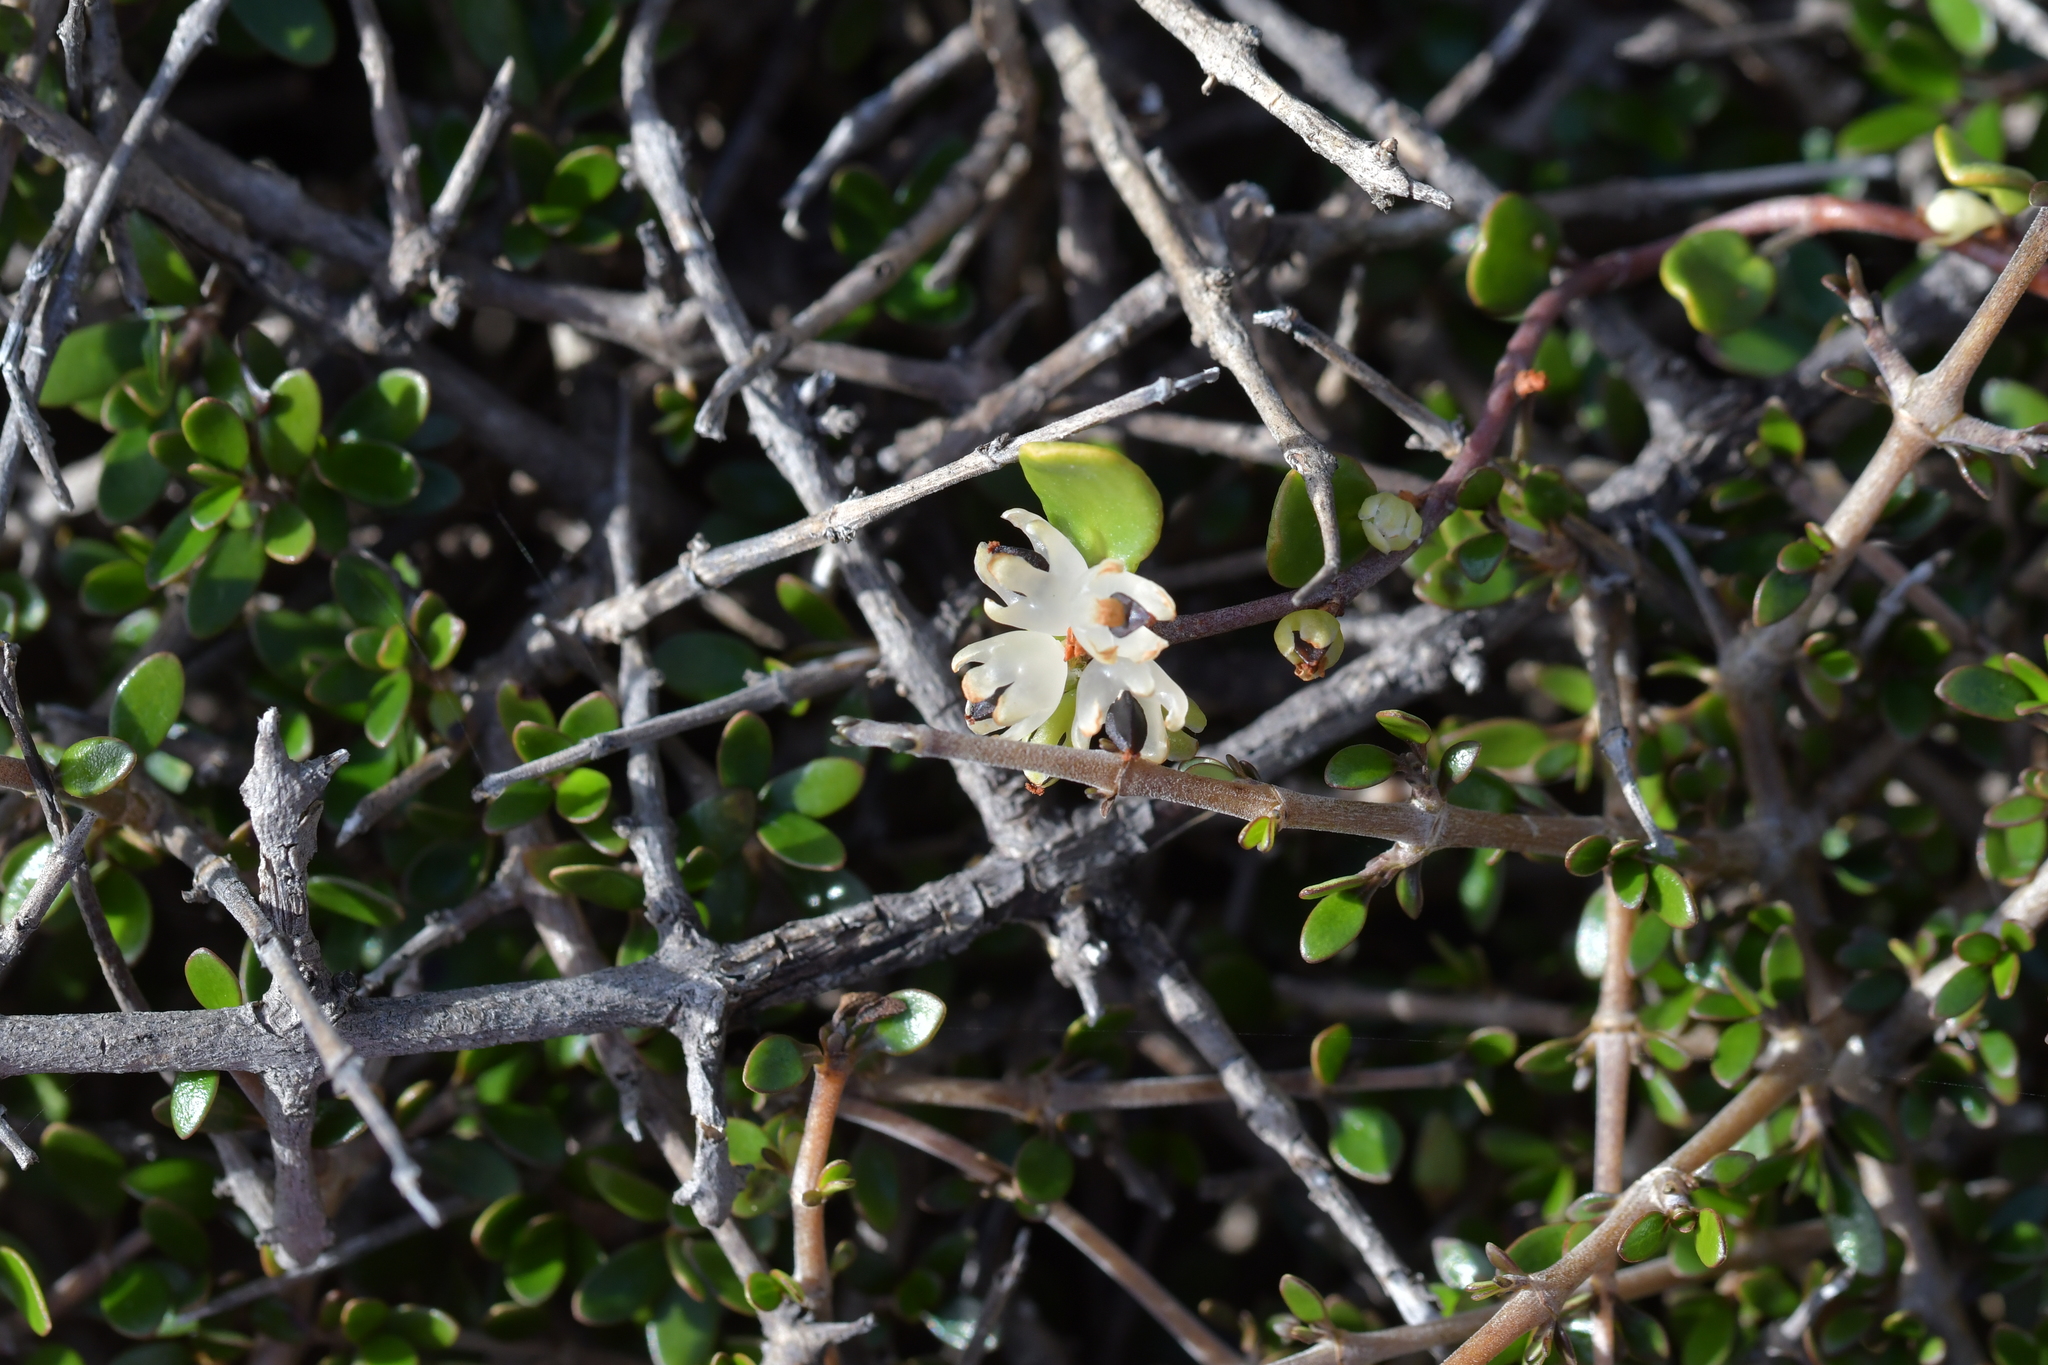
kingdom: Plantae
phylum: Tracheophyta
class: Magnoliopsida
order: Caryophyllales
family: Polygonaceae
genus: Muehlenbeckia
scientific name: Muehlenbeckia complexa
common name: Wireplant
